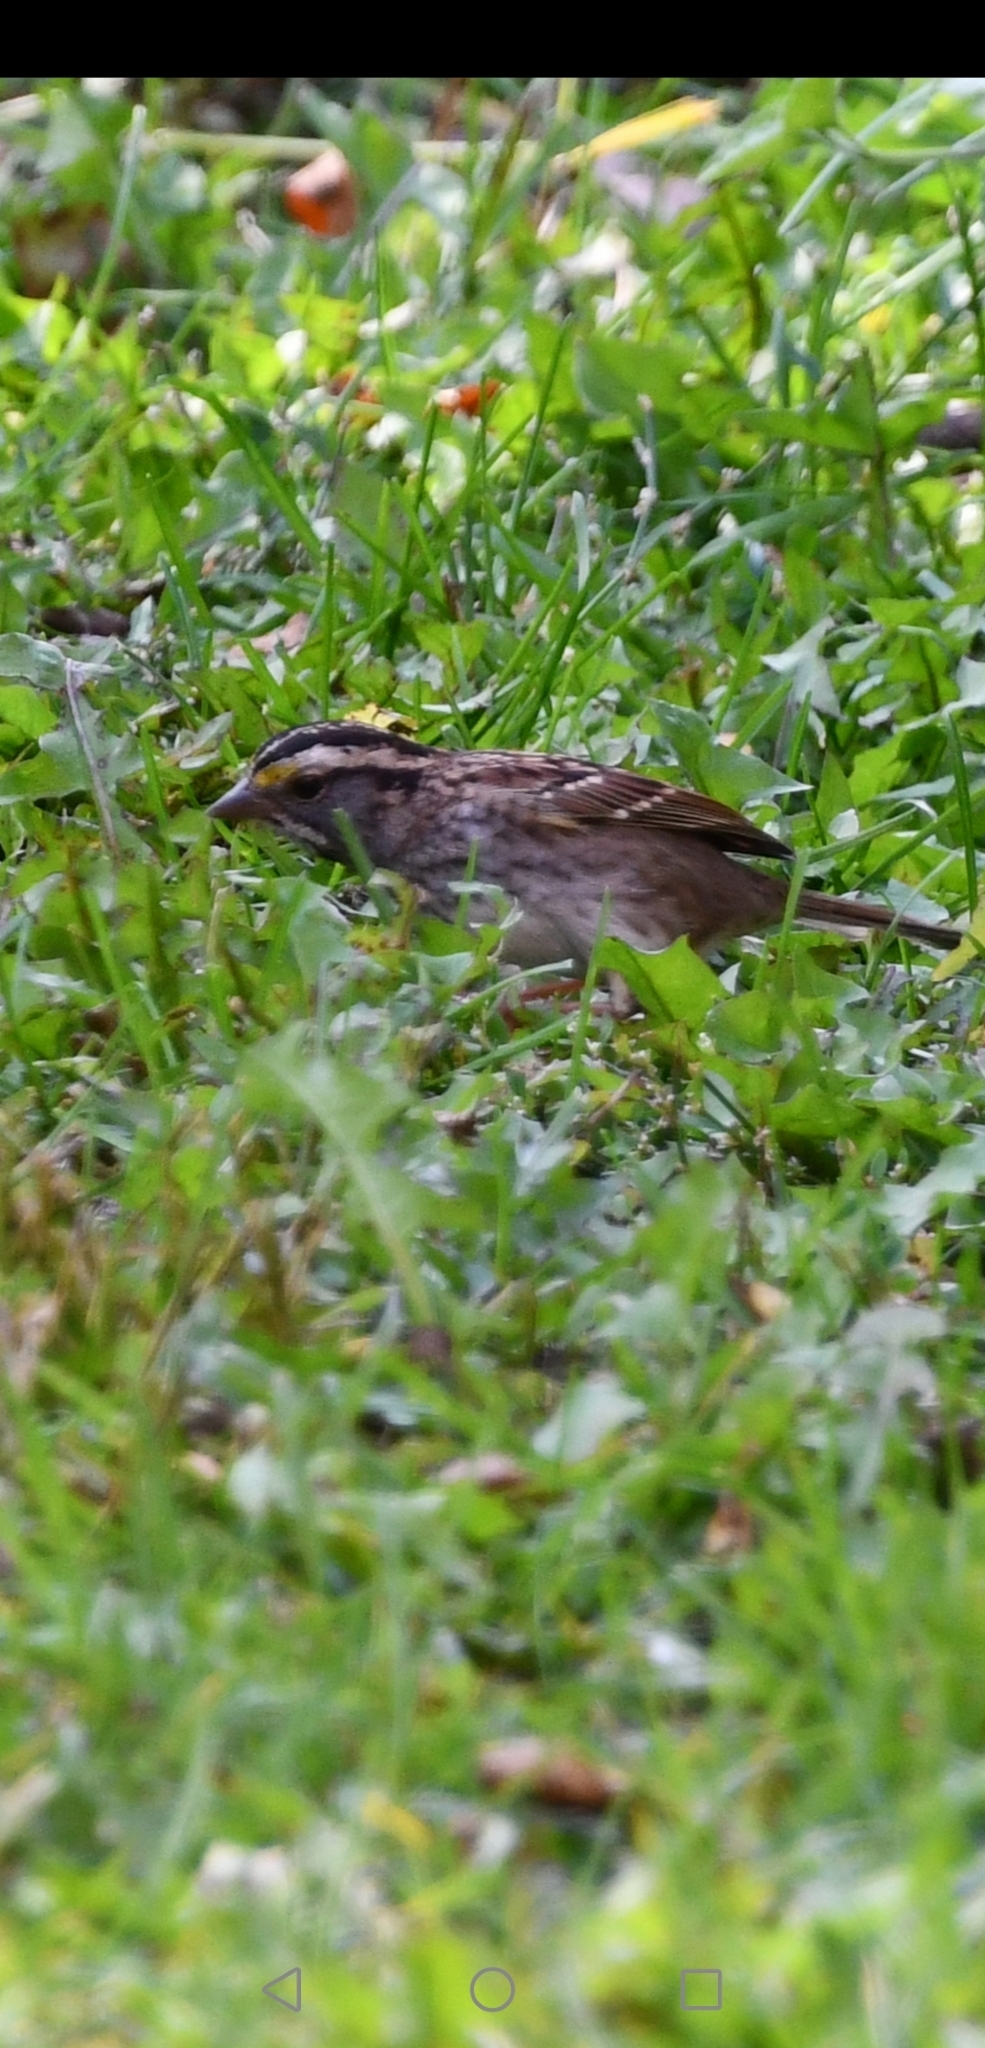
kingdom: Animalia
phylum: Chordata
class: Aves
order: Passeriformes
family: Passerellidae
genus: Zonotrichia
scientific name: Zonotrichia albicollis
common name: White-throated sparrow
